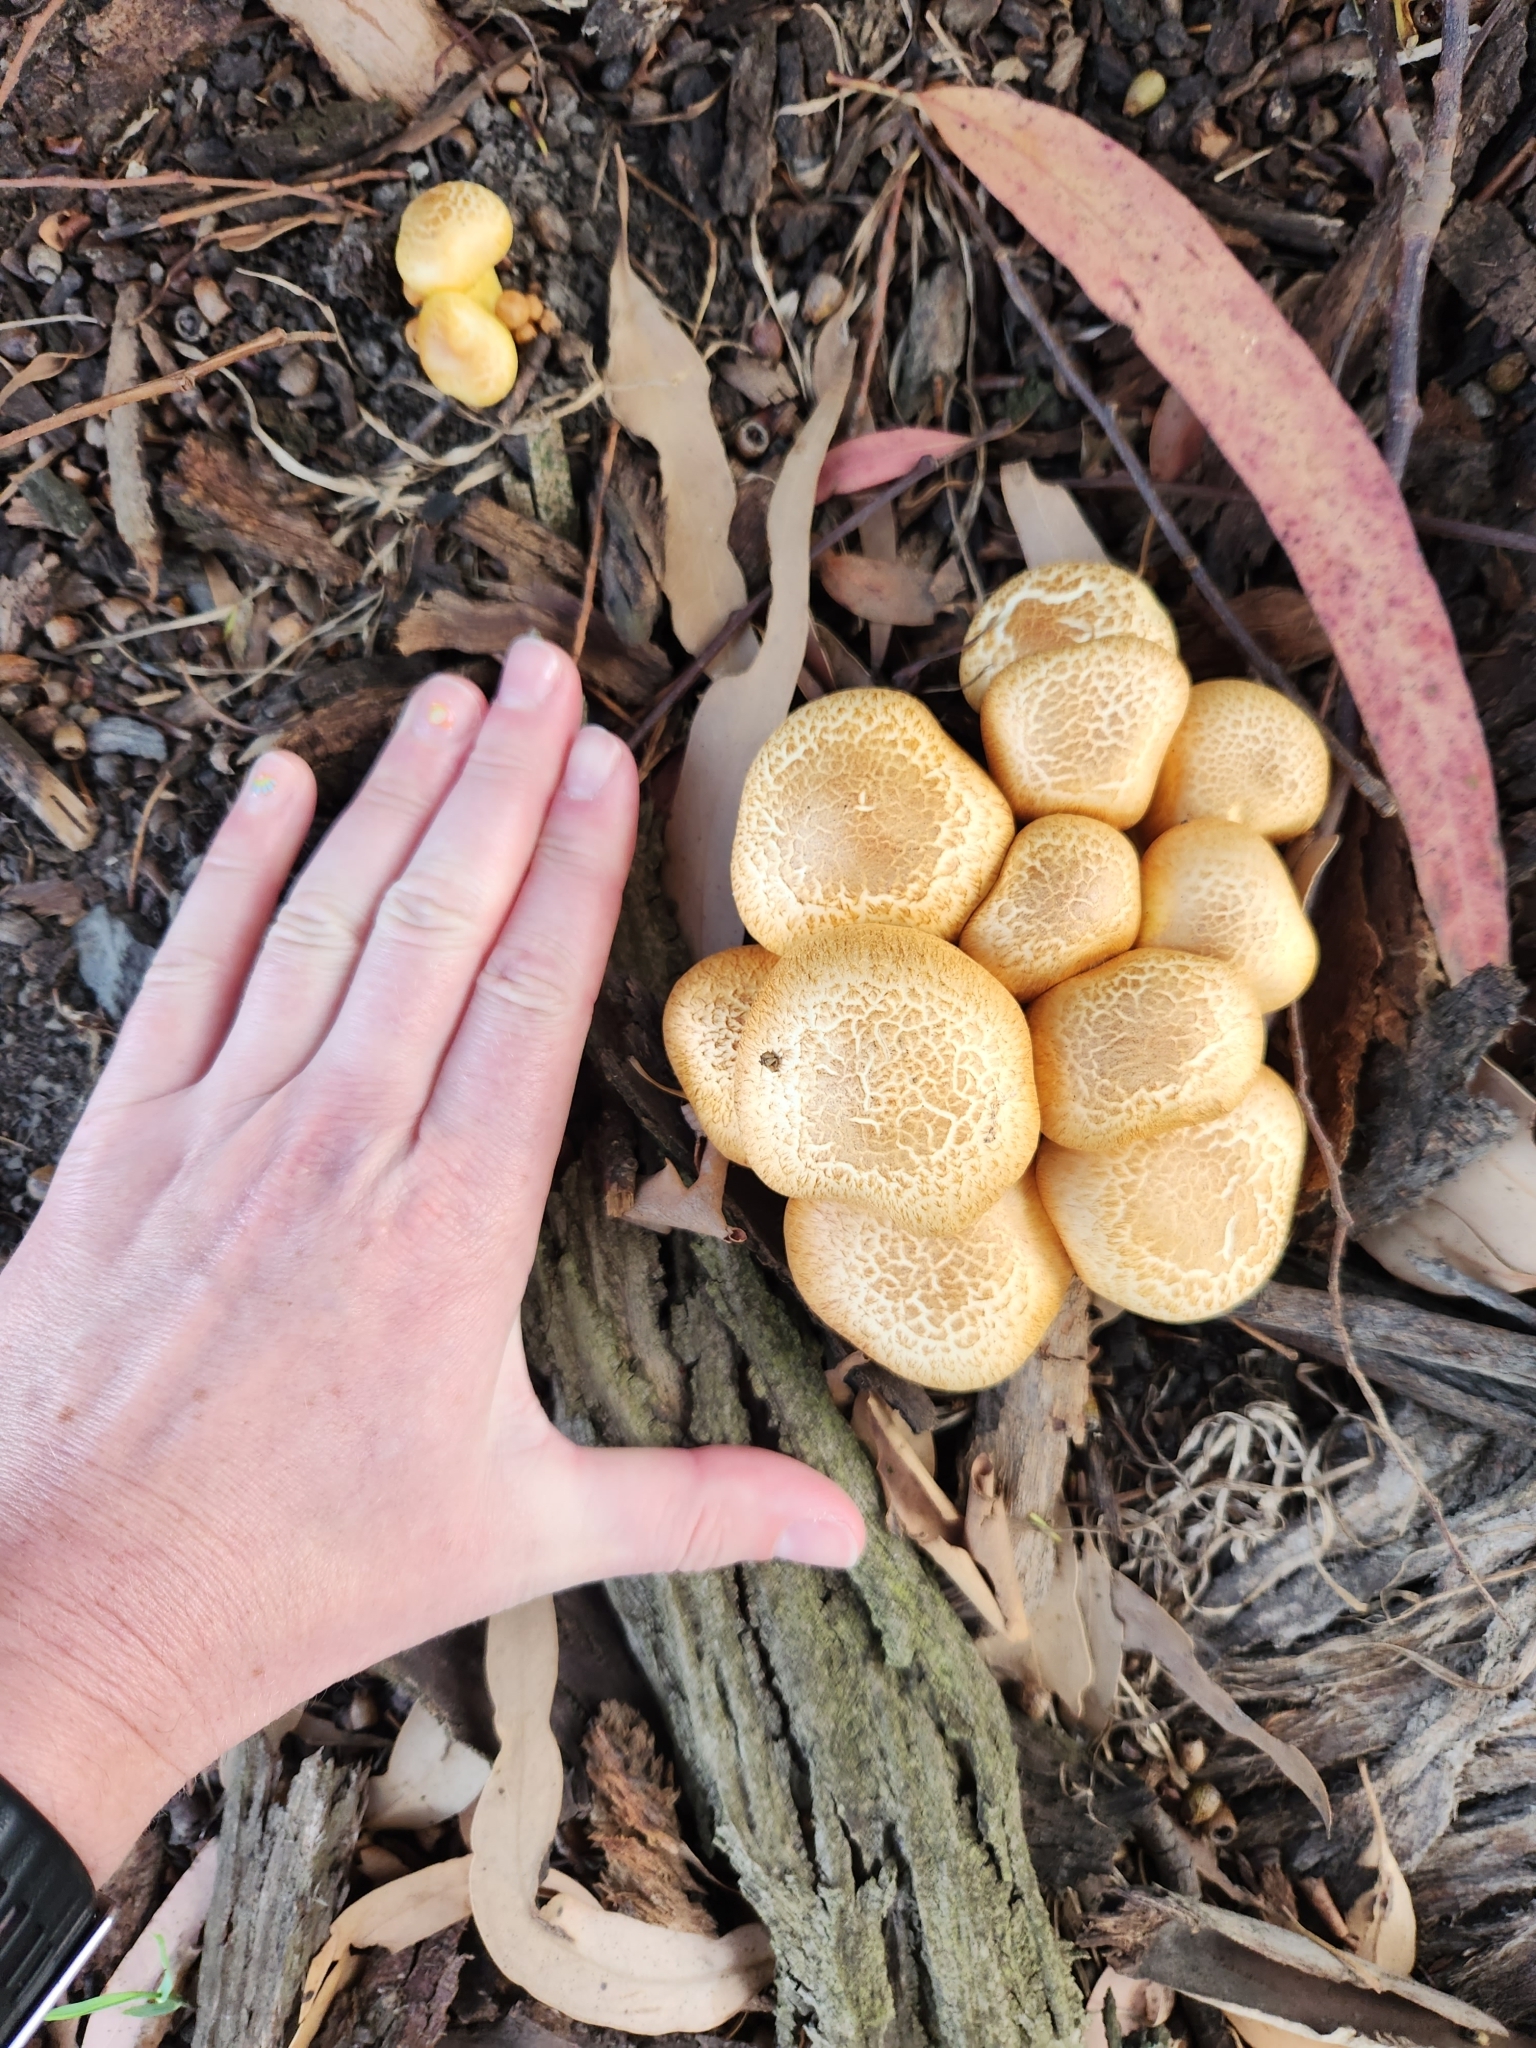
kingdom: Fungi
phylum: Basidiomycota
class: Agaricomycetes
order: Agaricales
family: Hymenogastraceae
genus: Gymnopilus
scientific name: Gymnopilus junonius
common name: Spectacular rustgill
